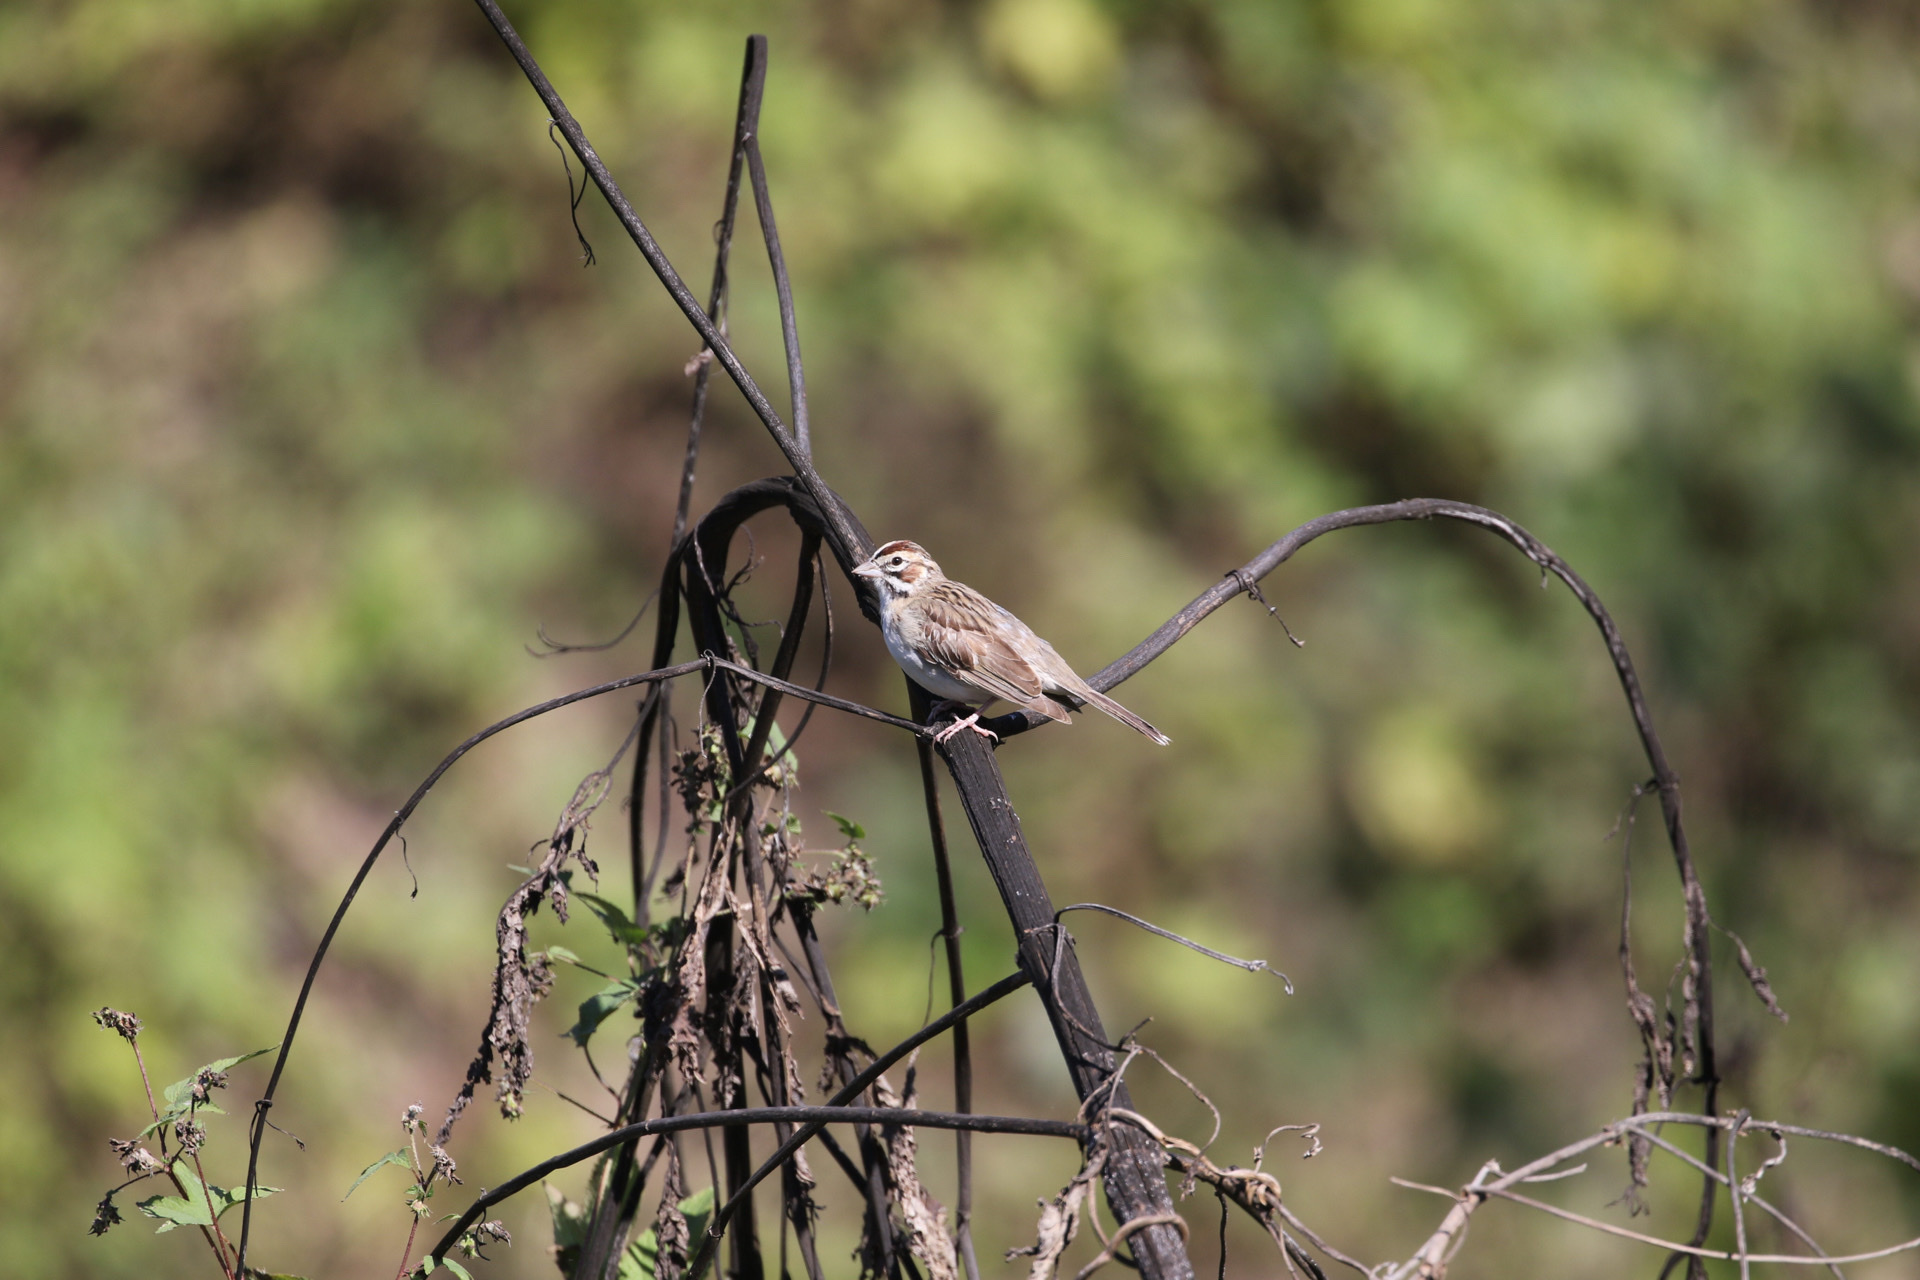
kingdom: Animalia
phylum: Chordata
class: Aves
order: Passeriformes
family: Passerellidae
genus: Chondestes
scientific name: Chondestes grammacus
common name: Lark sparrow
